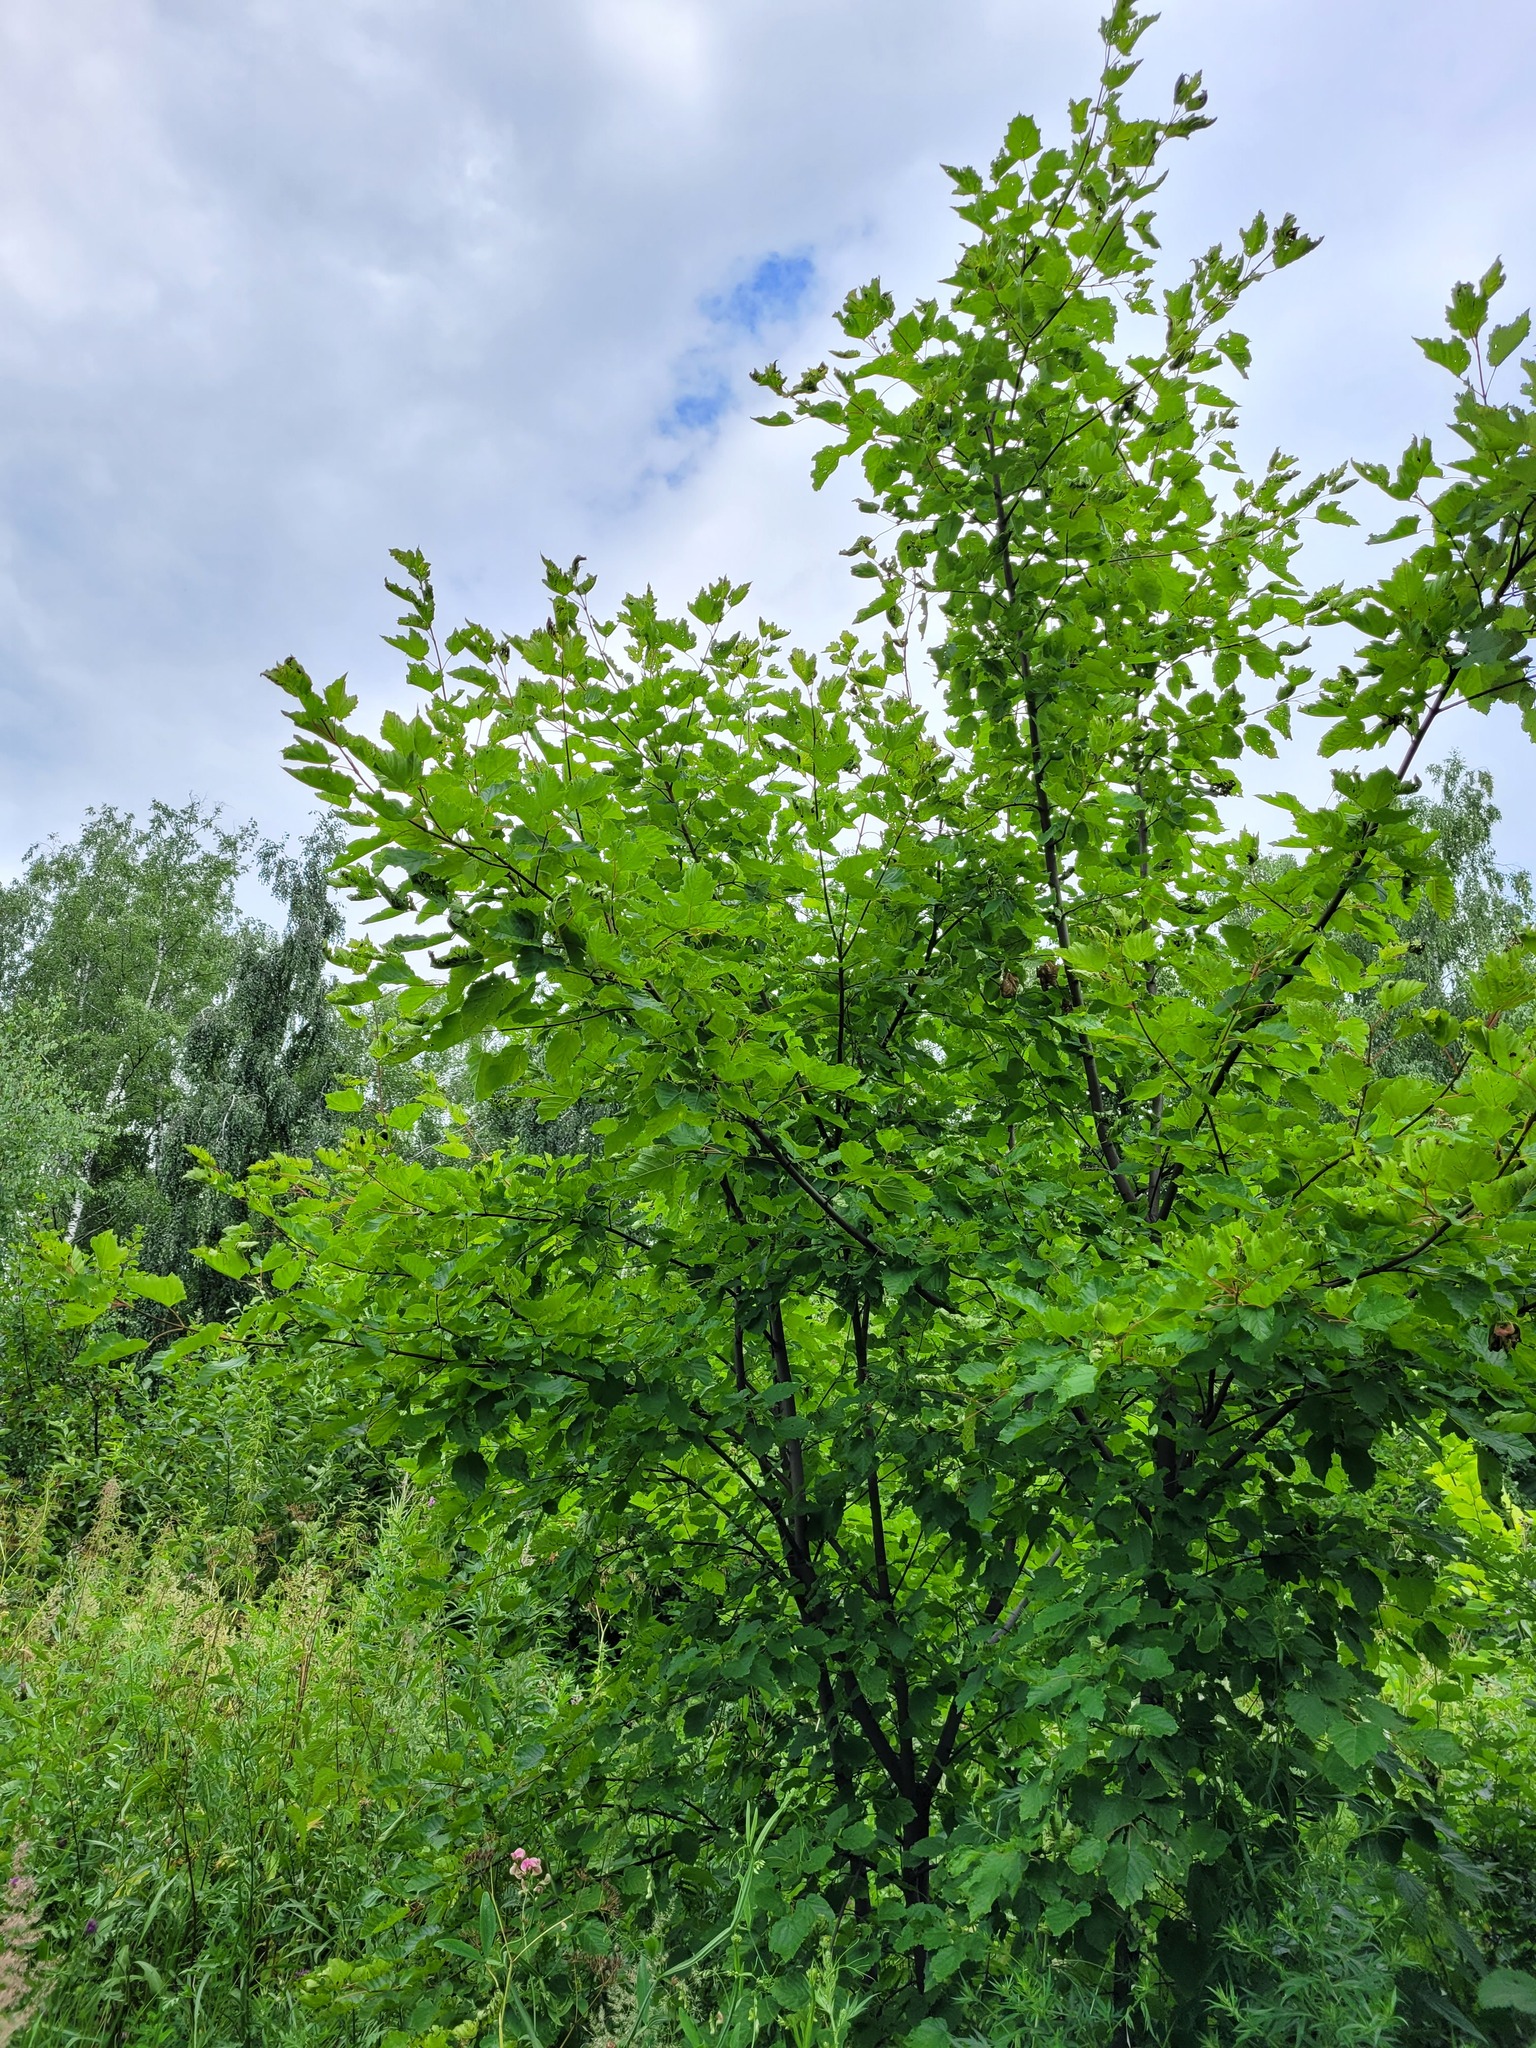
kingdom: Plantae
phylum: Tracheophyta
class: Magnoliopsida
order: Sapindales
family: Sapindaceae
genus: Acer
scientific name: Acer tataricum
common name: Tartar maple
